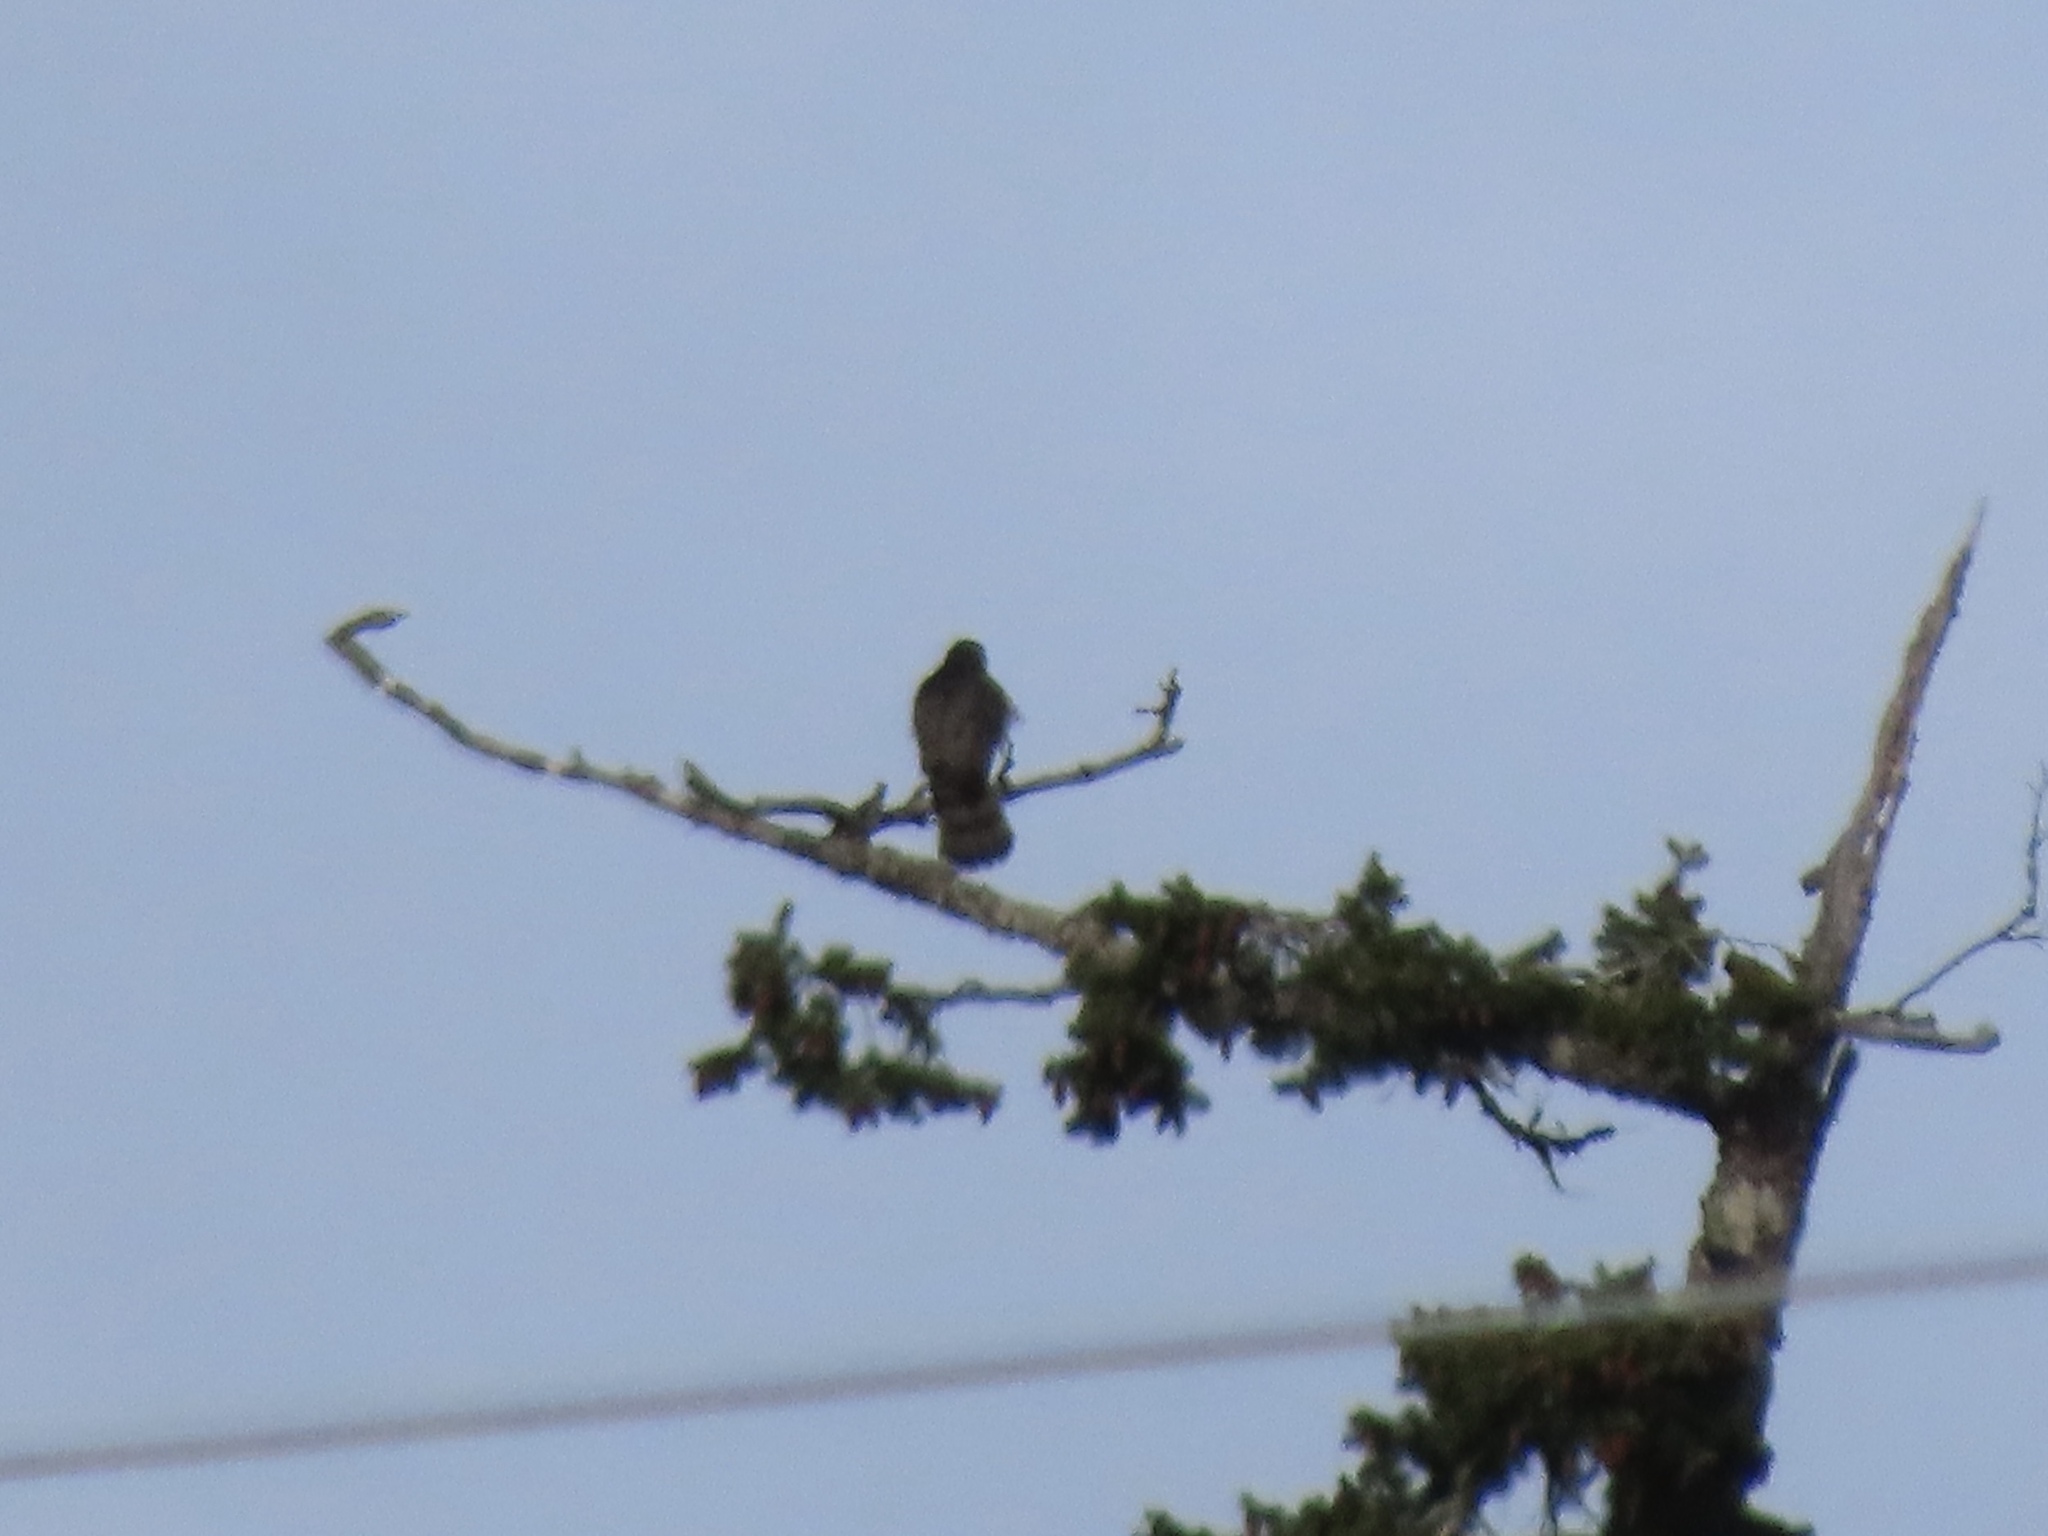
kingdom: Animalia
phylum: Chordata
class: Aves
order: Accipitriformes
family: Accipitridae
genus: Accipiter
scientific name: Accipiter cooperii
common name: Cooper's hawk
